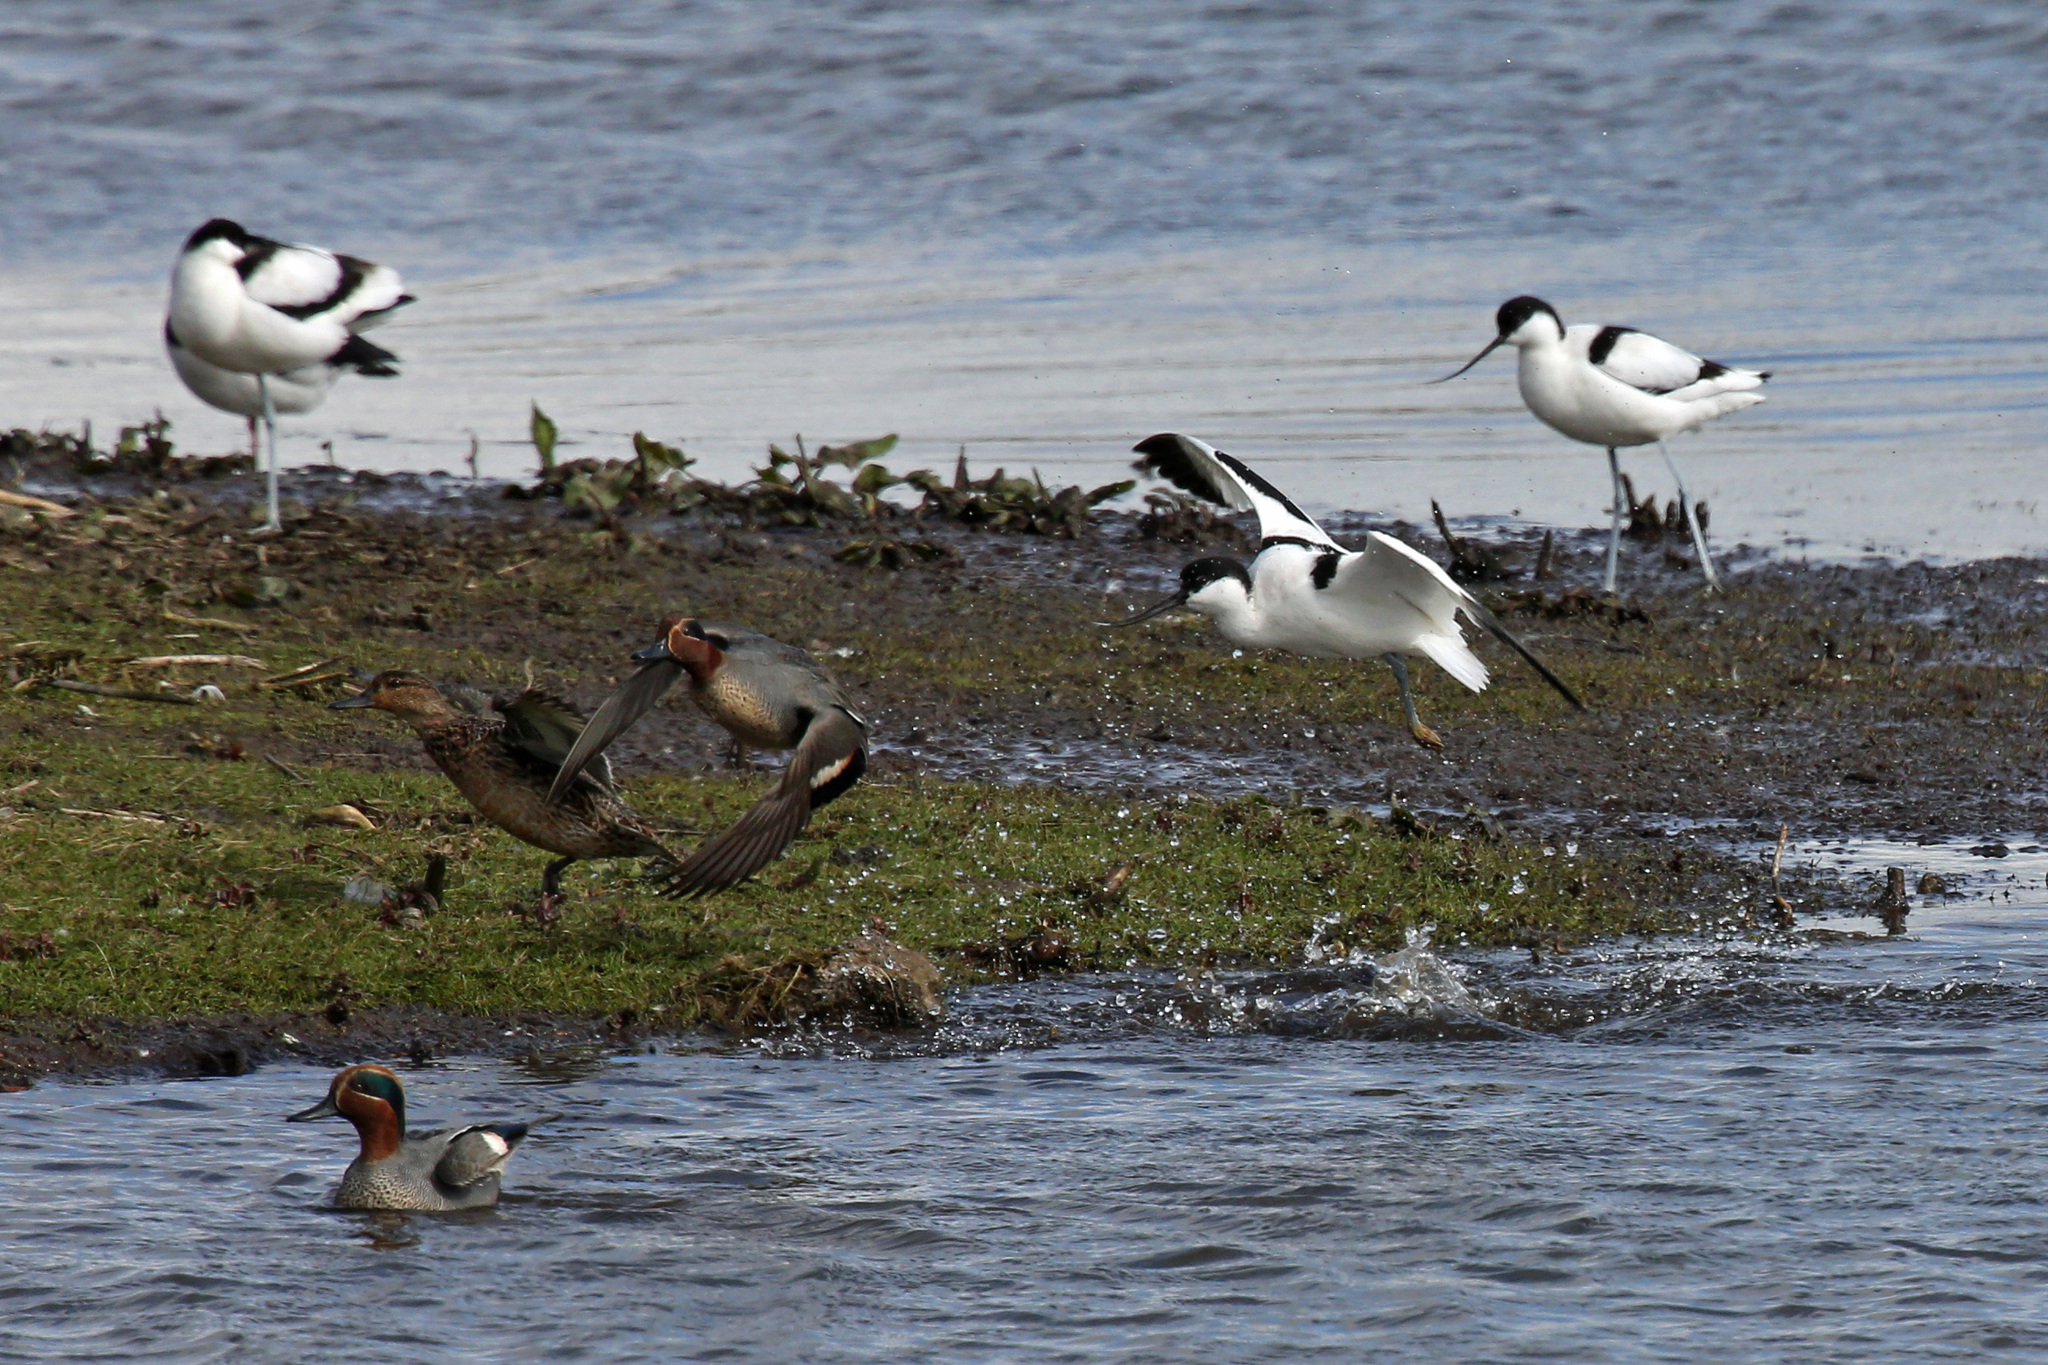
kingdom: Animalia
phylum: Chordata
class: Aves
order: Anseriformes
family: Anatidae
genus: Anas
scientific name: Anas crecca
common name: Eurasian teal
